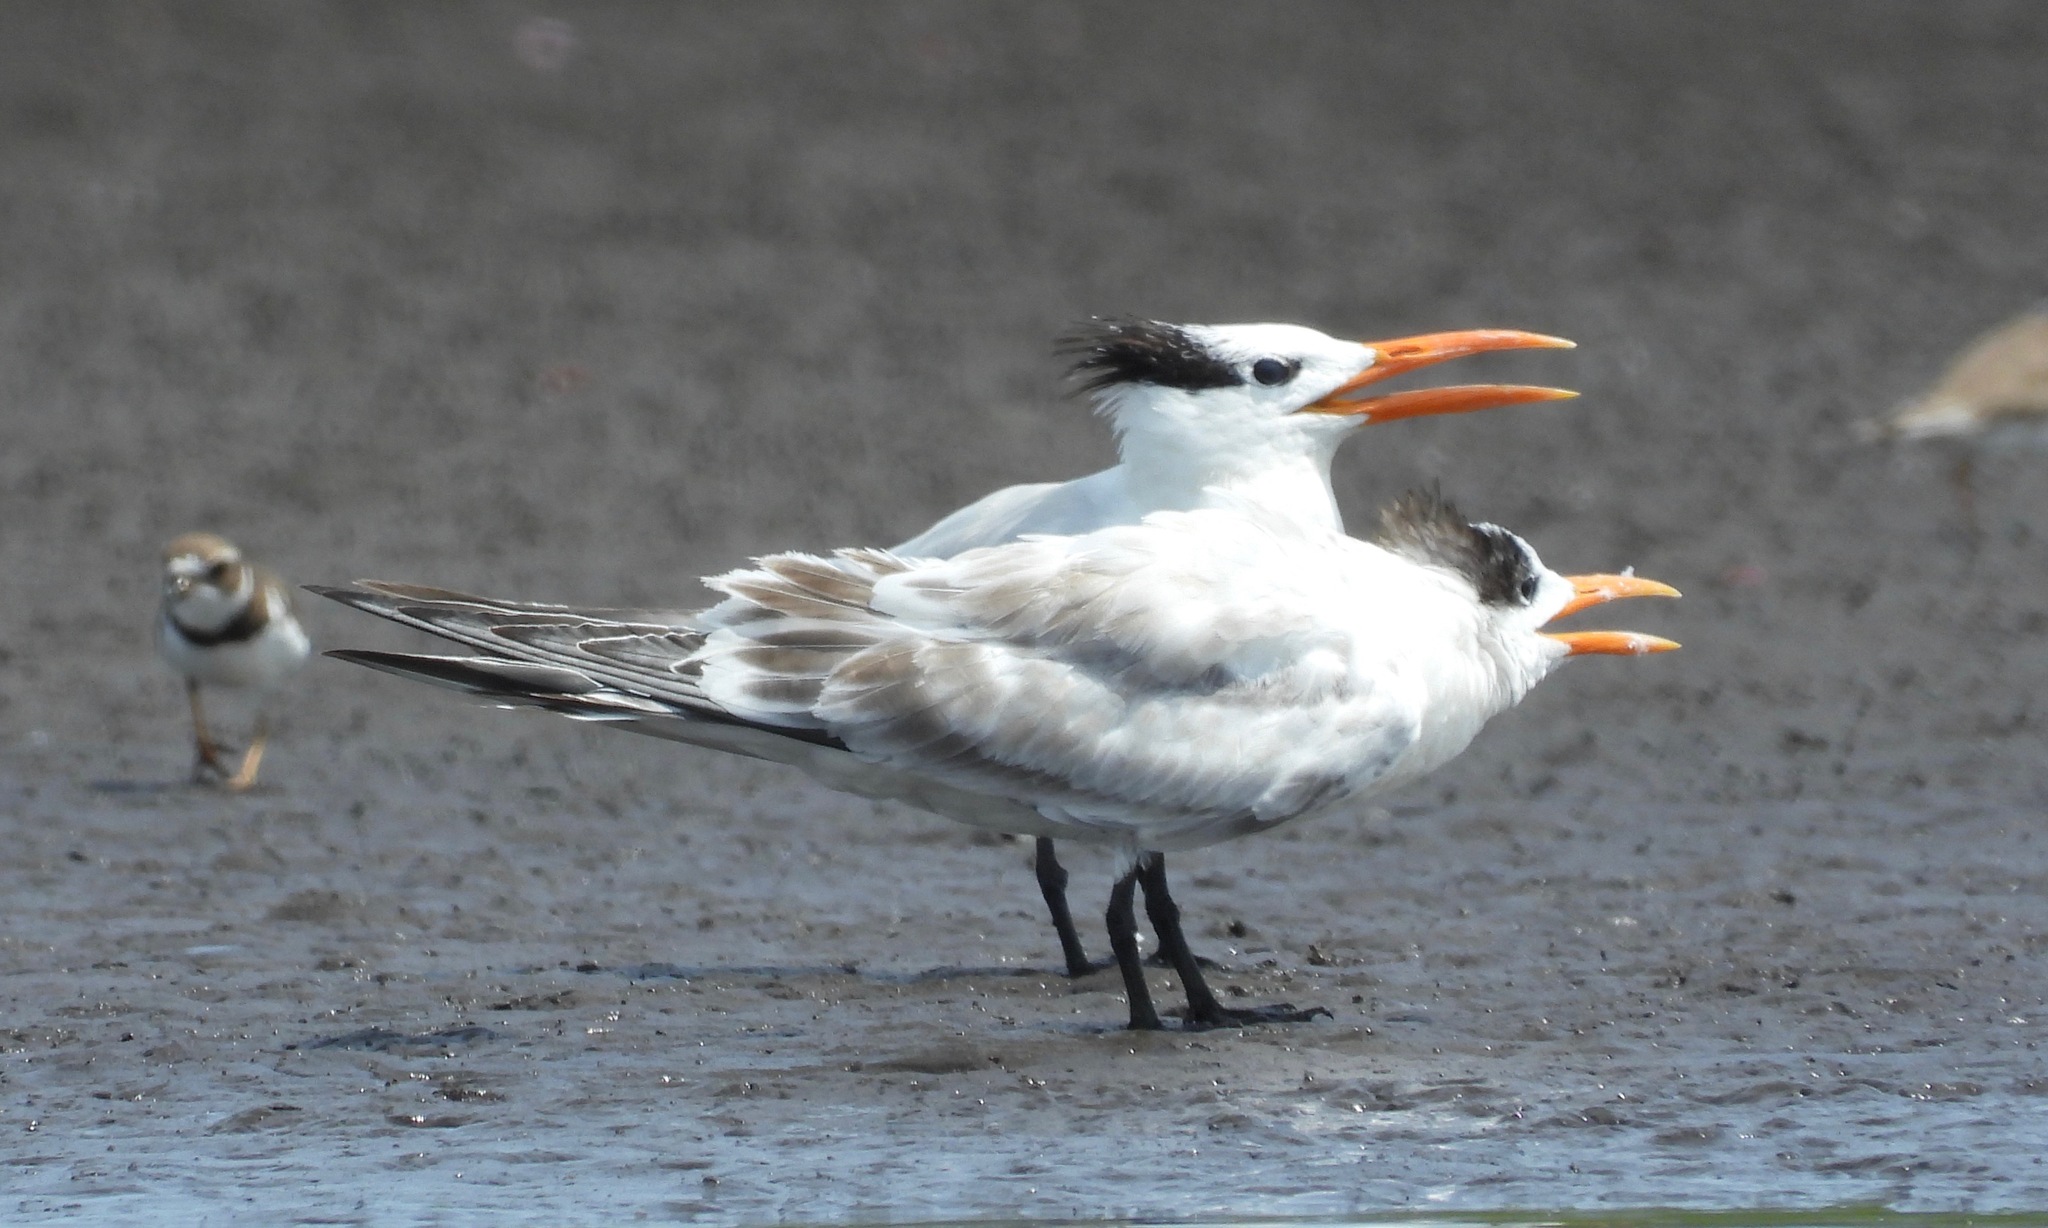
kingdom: Animalia
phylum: Chordata
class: Aves
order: Charadriiformes
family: Laridae
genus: Thalasseus
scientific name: Thalasseus maximus
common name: Royal tern
